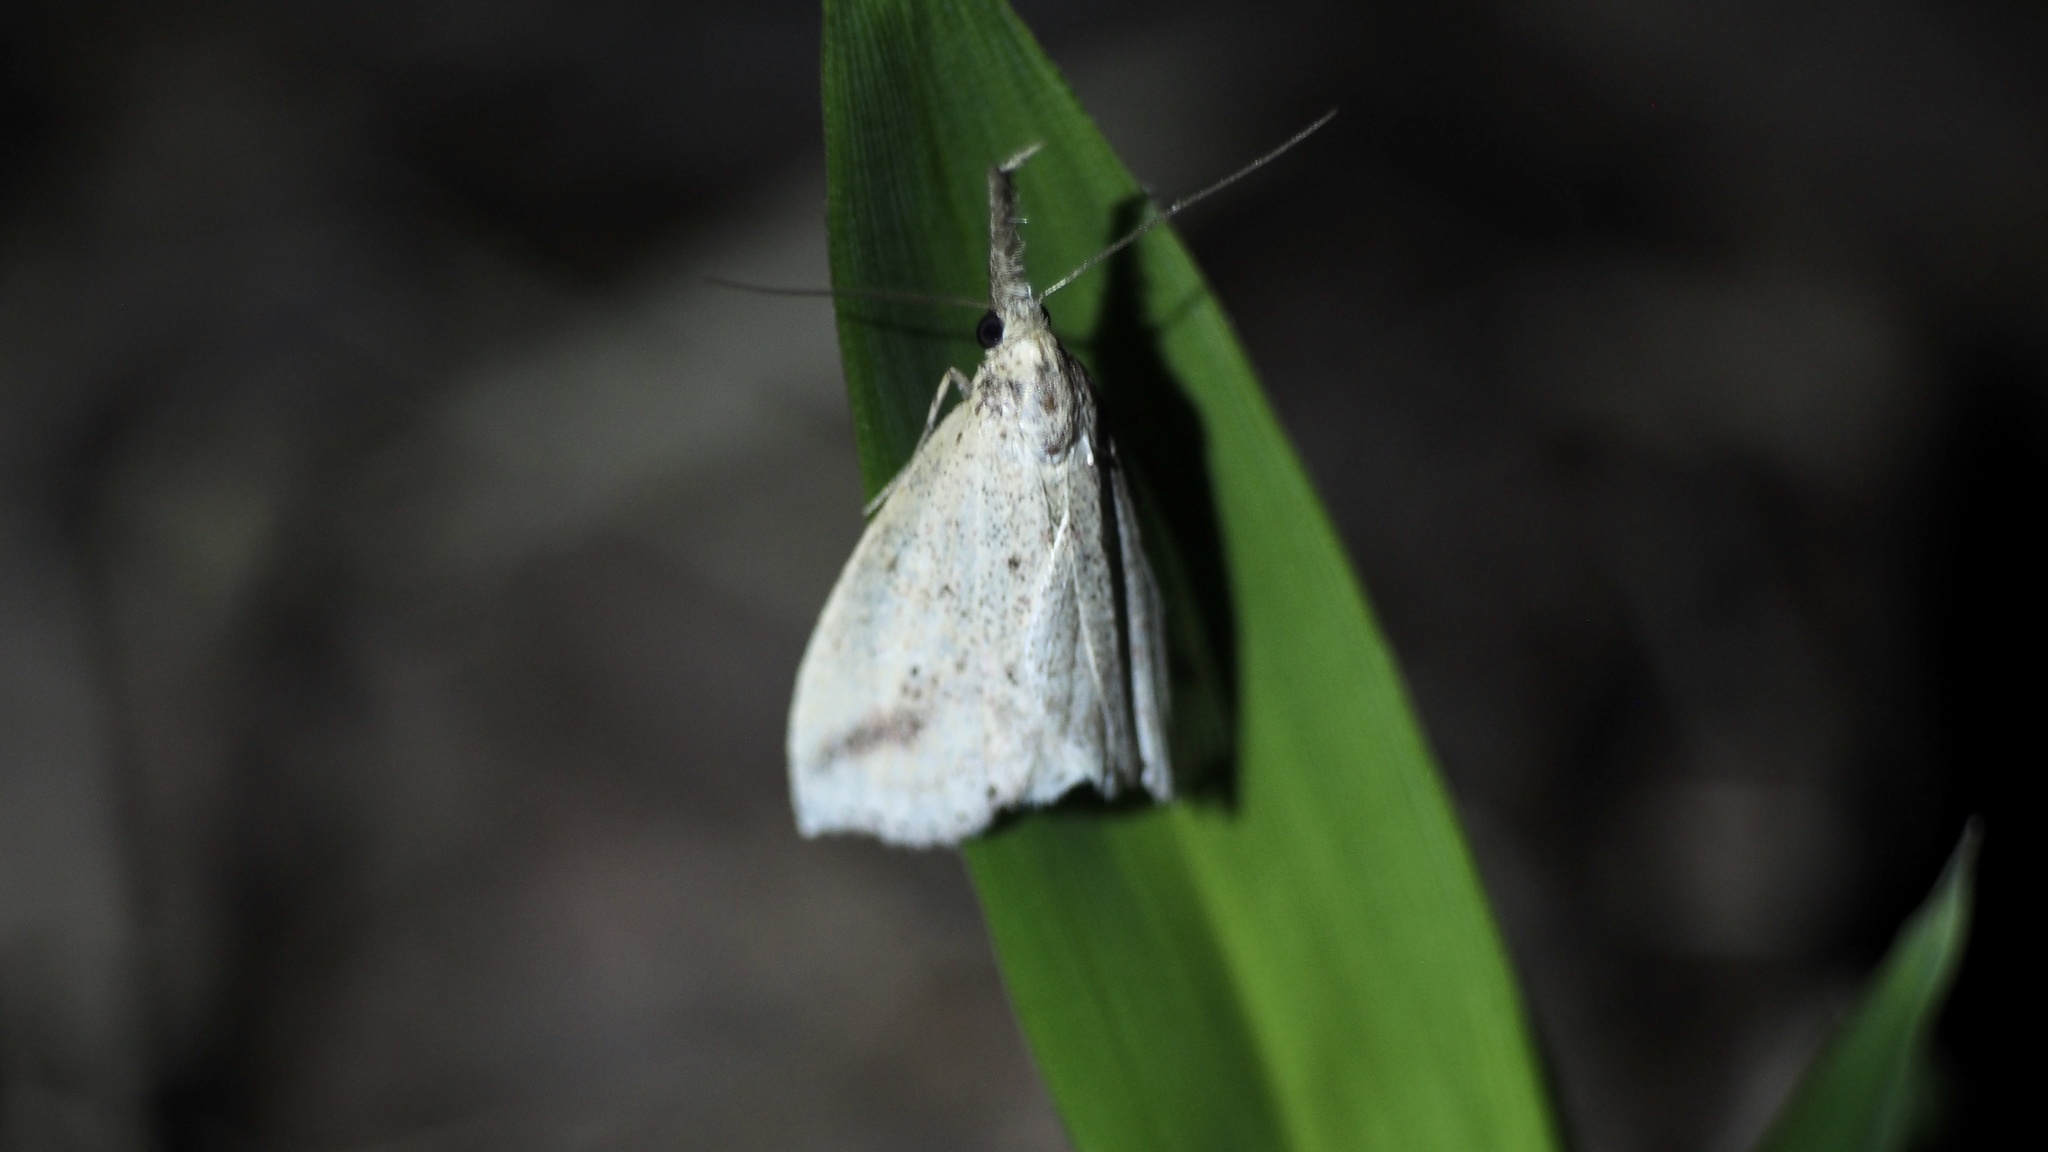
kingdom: Animalia
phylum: Arthropoda
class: Insecta
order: Lepidoptera
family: Erebidae
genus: Hypenomorpha
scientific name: Hypenomorpha
